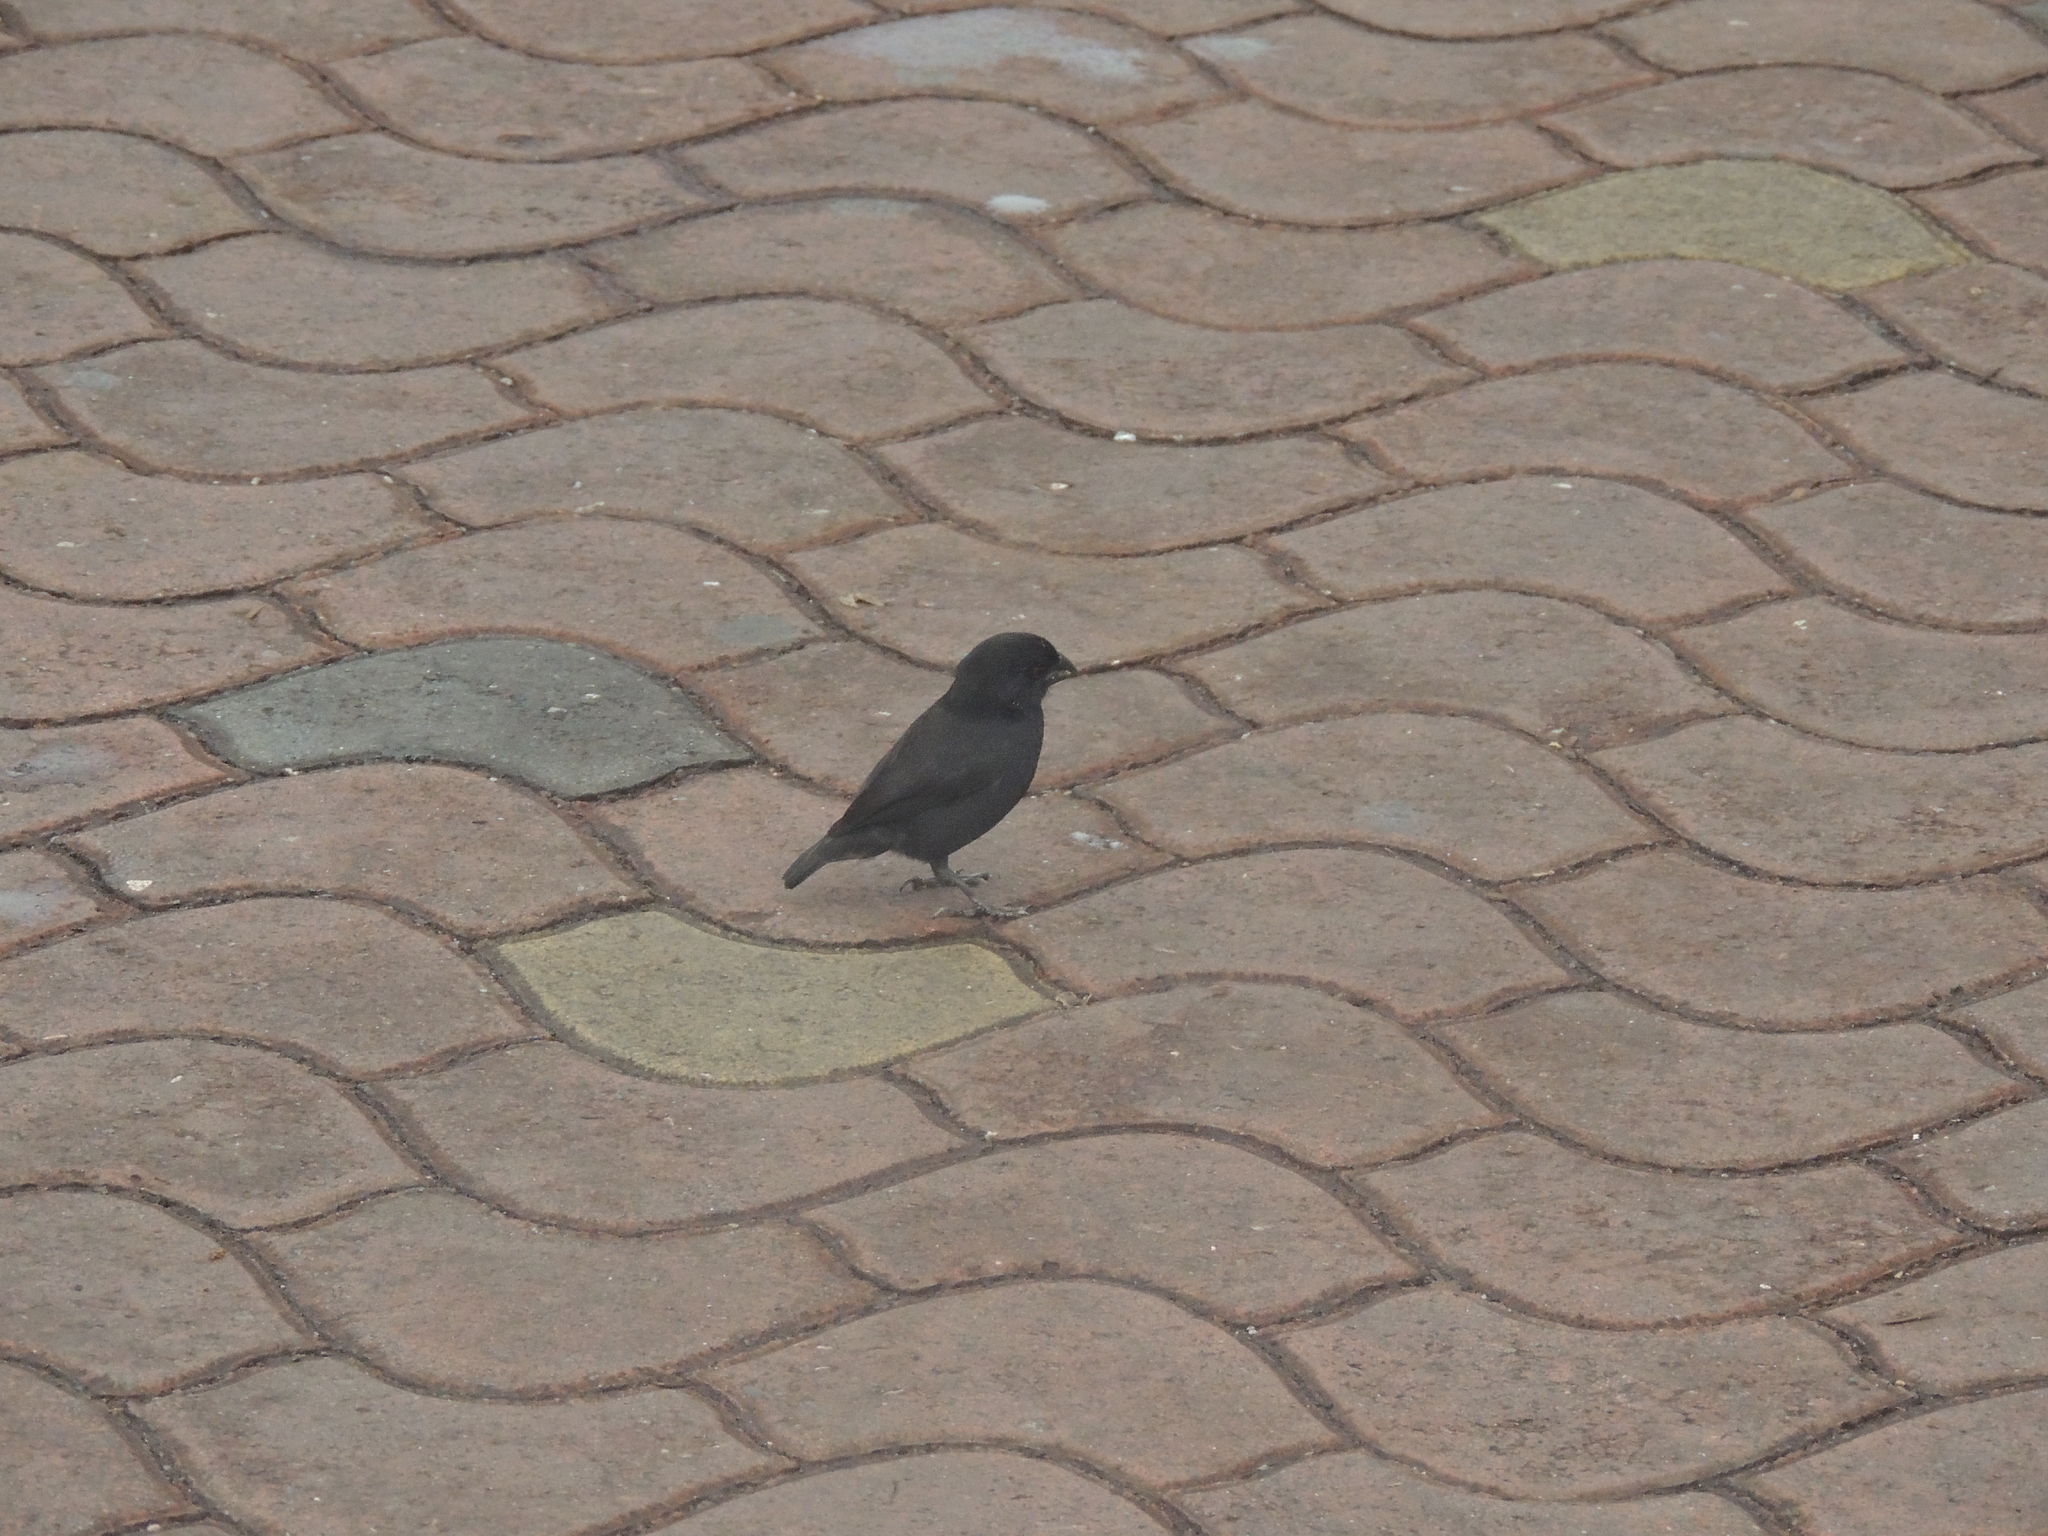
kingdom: Animalia
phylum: Chordata
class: Aves
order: Passeriformes
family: Thraupidae
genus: Geospiza
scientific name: Geospiza fuliginosa
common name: Small ground finch
